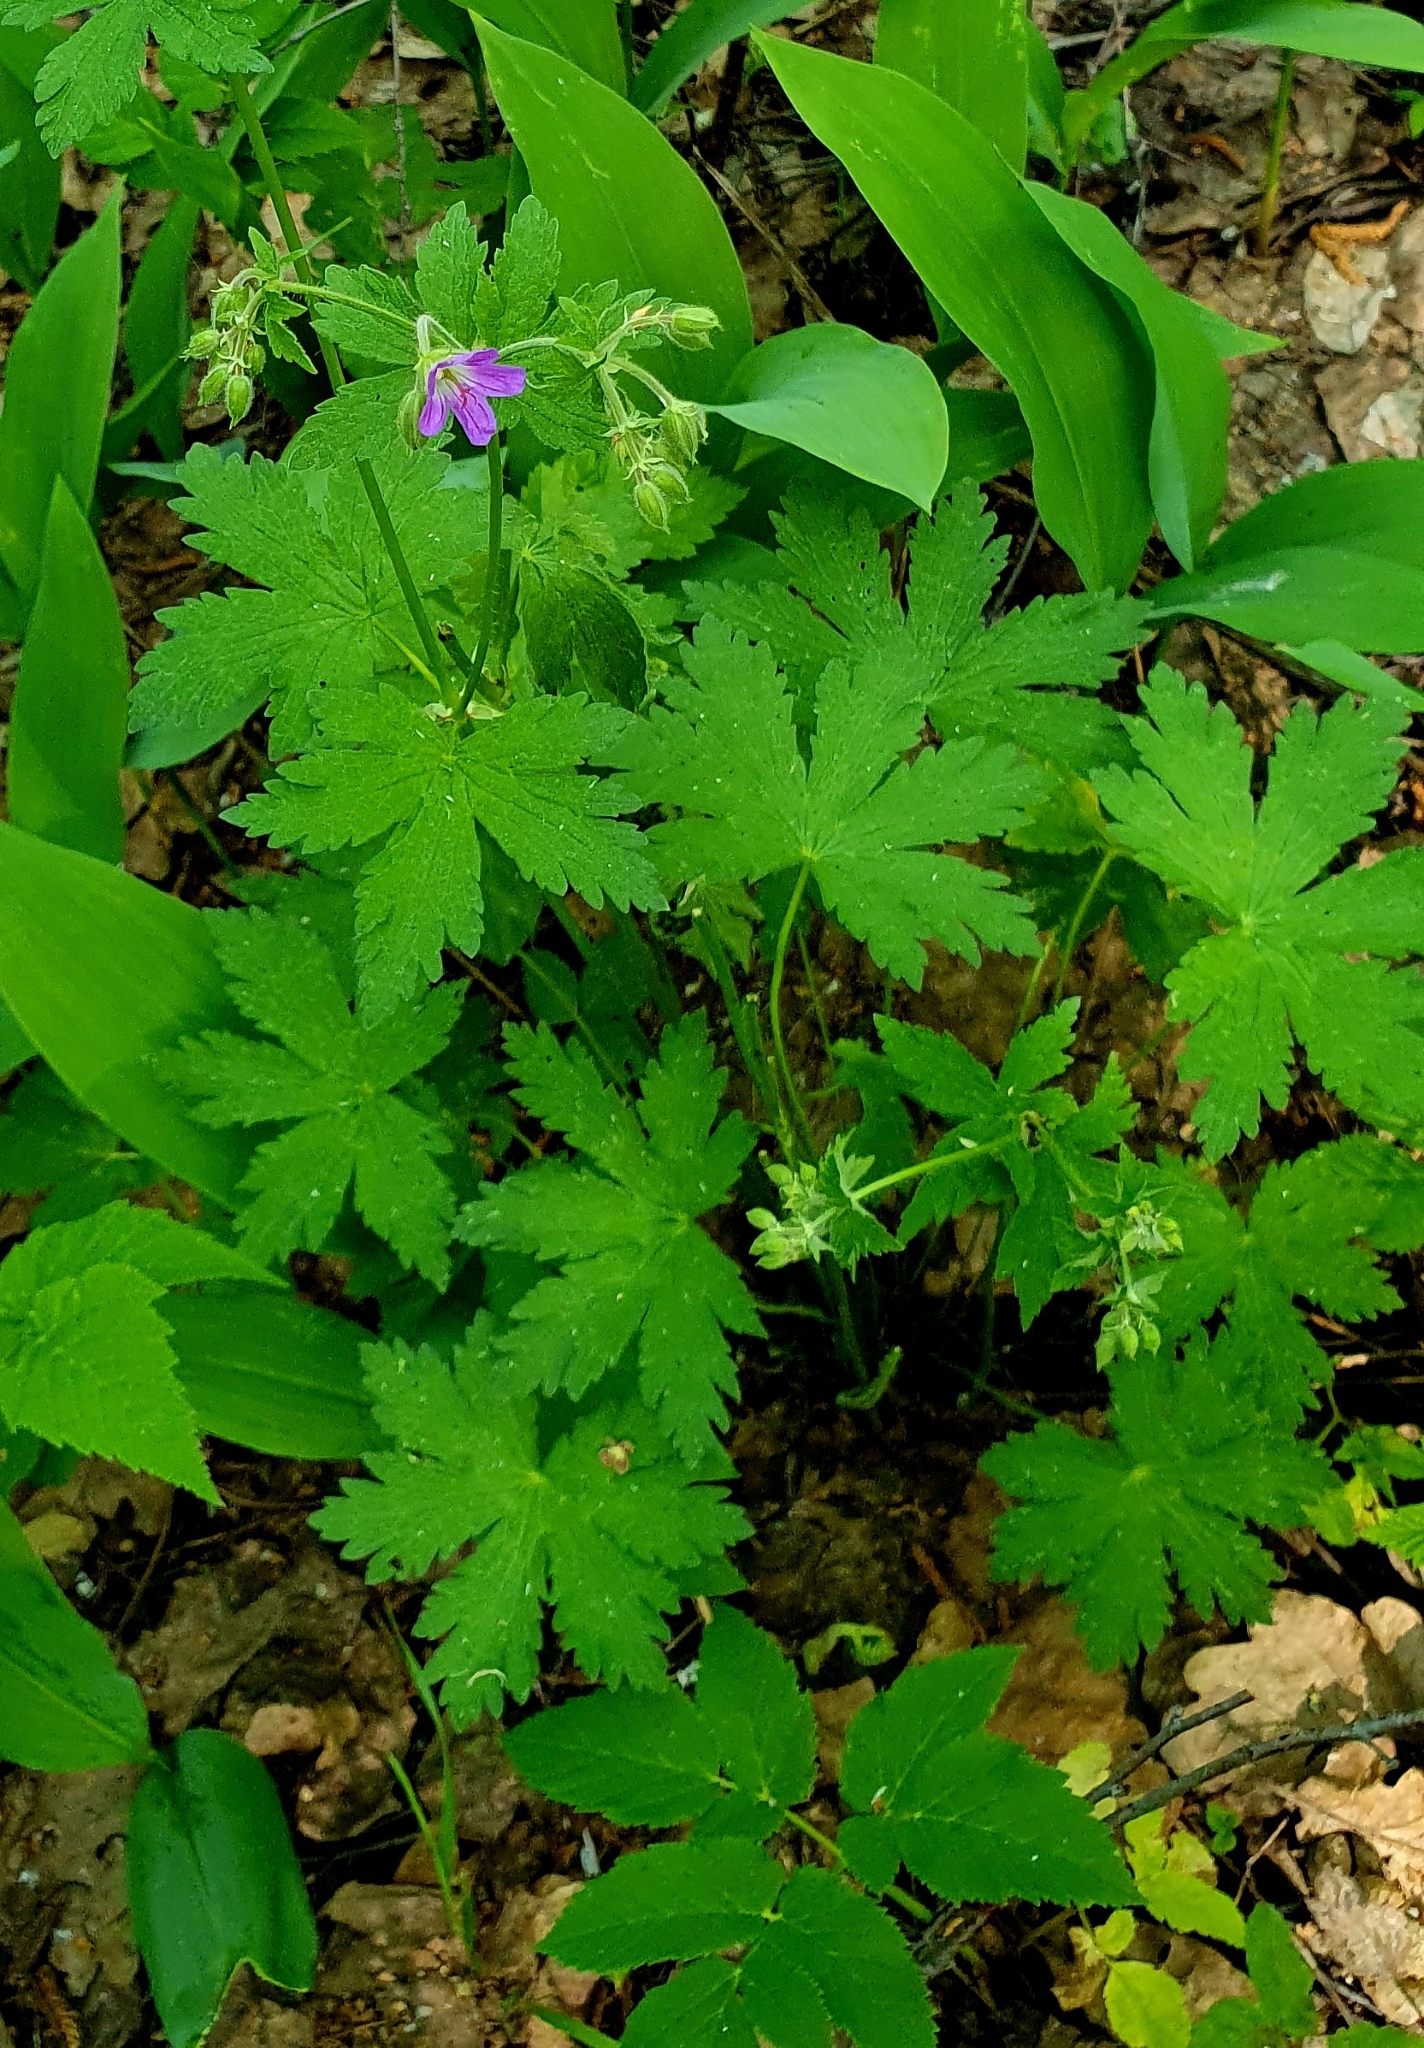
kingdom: Plantae
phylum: Tracheophyta
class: Magnoliopsida
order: Geraniales
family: Geraniaceae
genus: Geranium
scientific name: Geranium sylvaticum
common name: Wood crane's-bill
